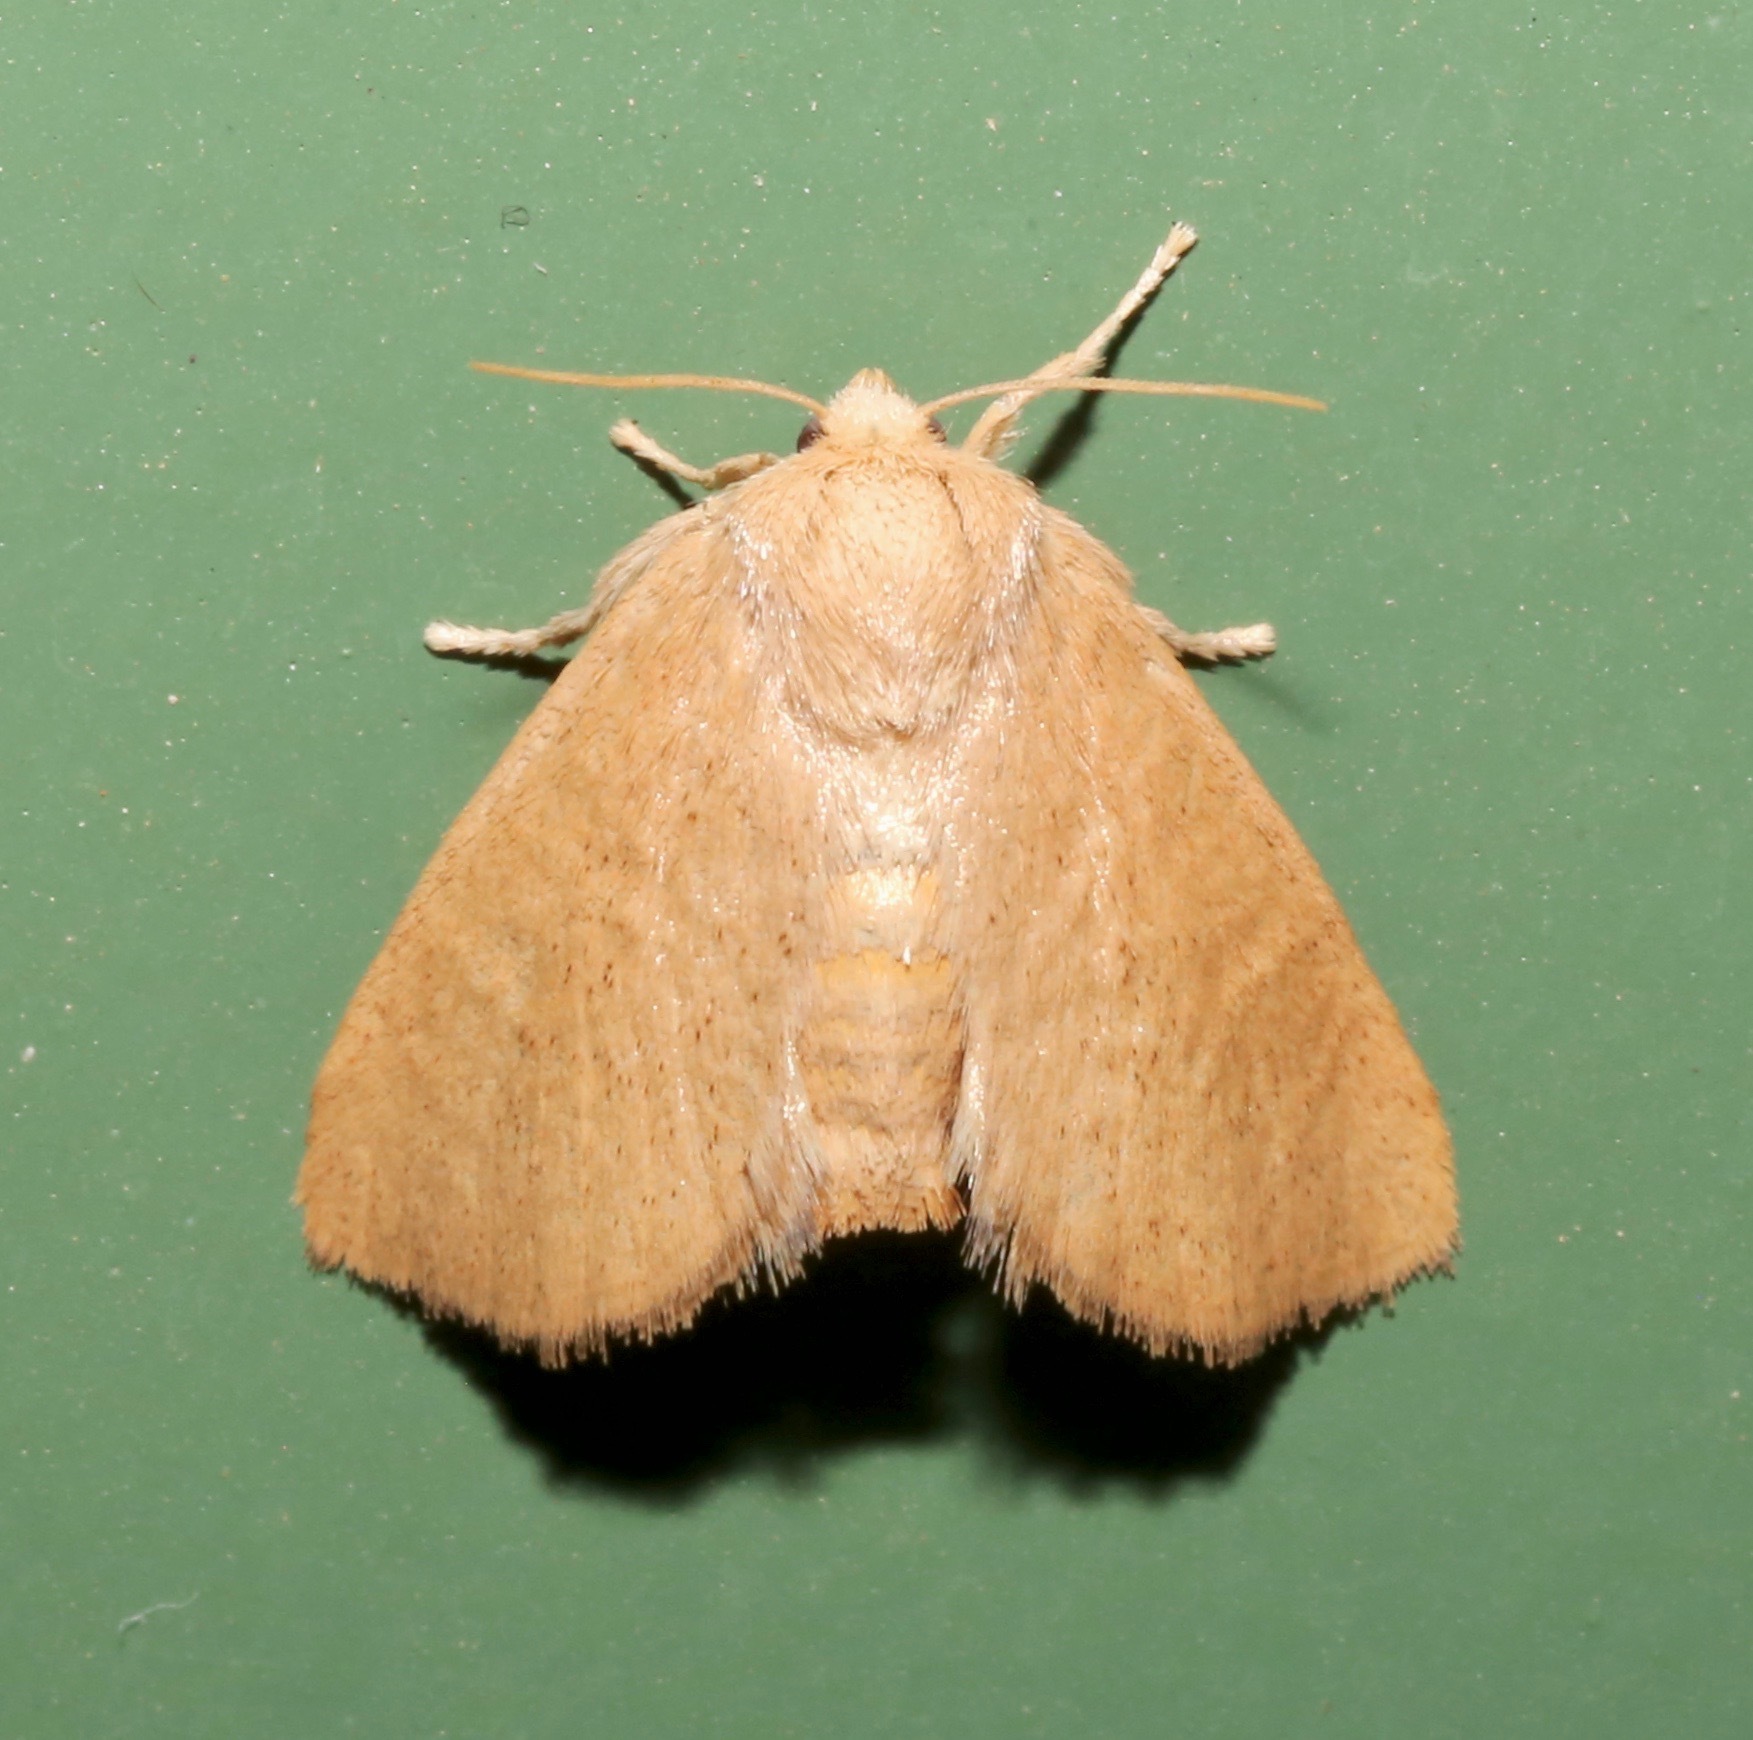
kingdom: Animalia
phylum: Arthropoda
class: Insecta
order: Lepidoptera
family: Limacodidae
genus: Isa
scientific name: Isa schaefferana
